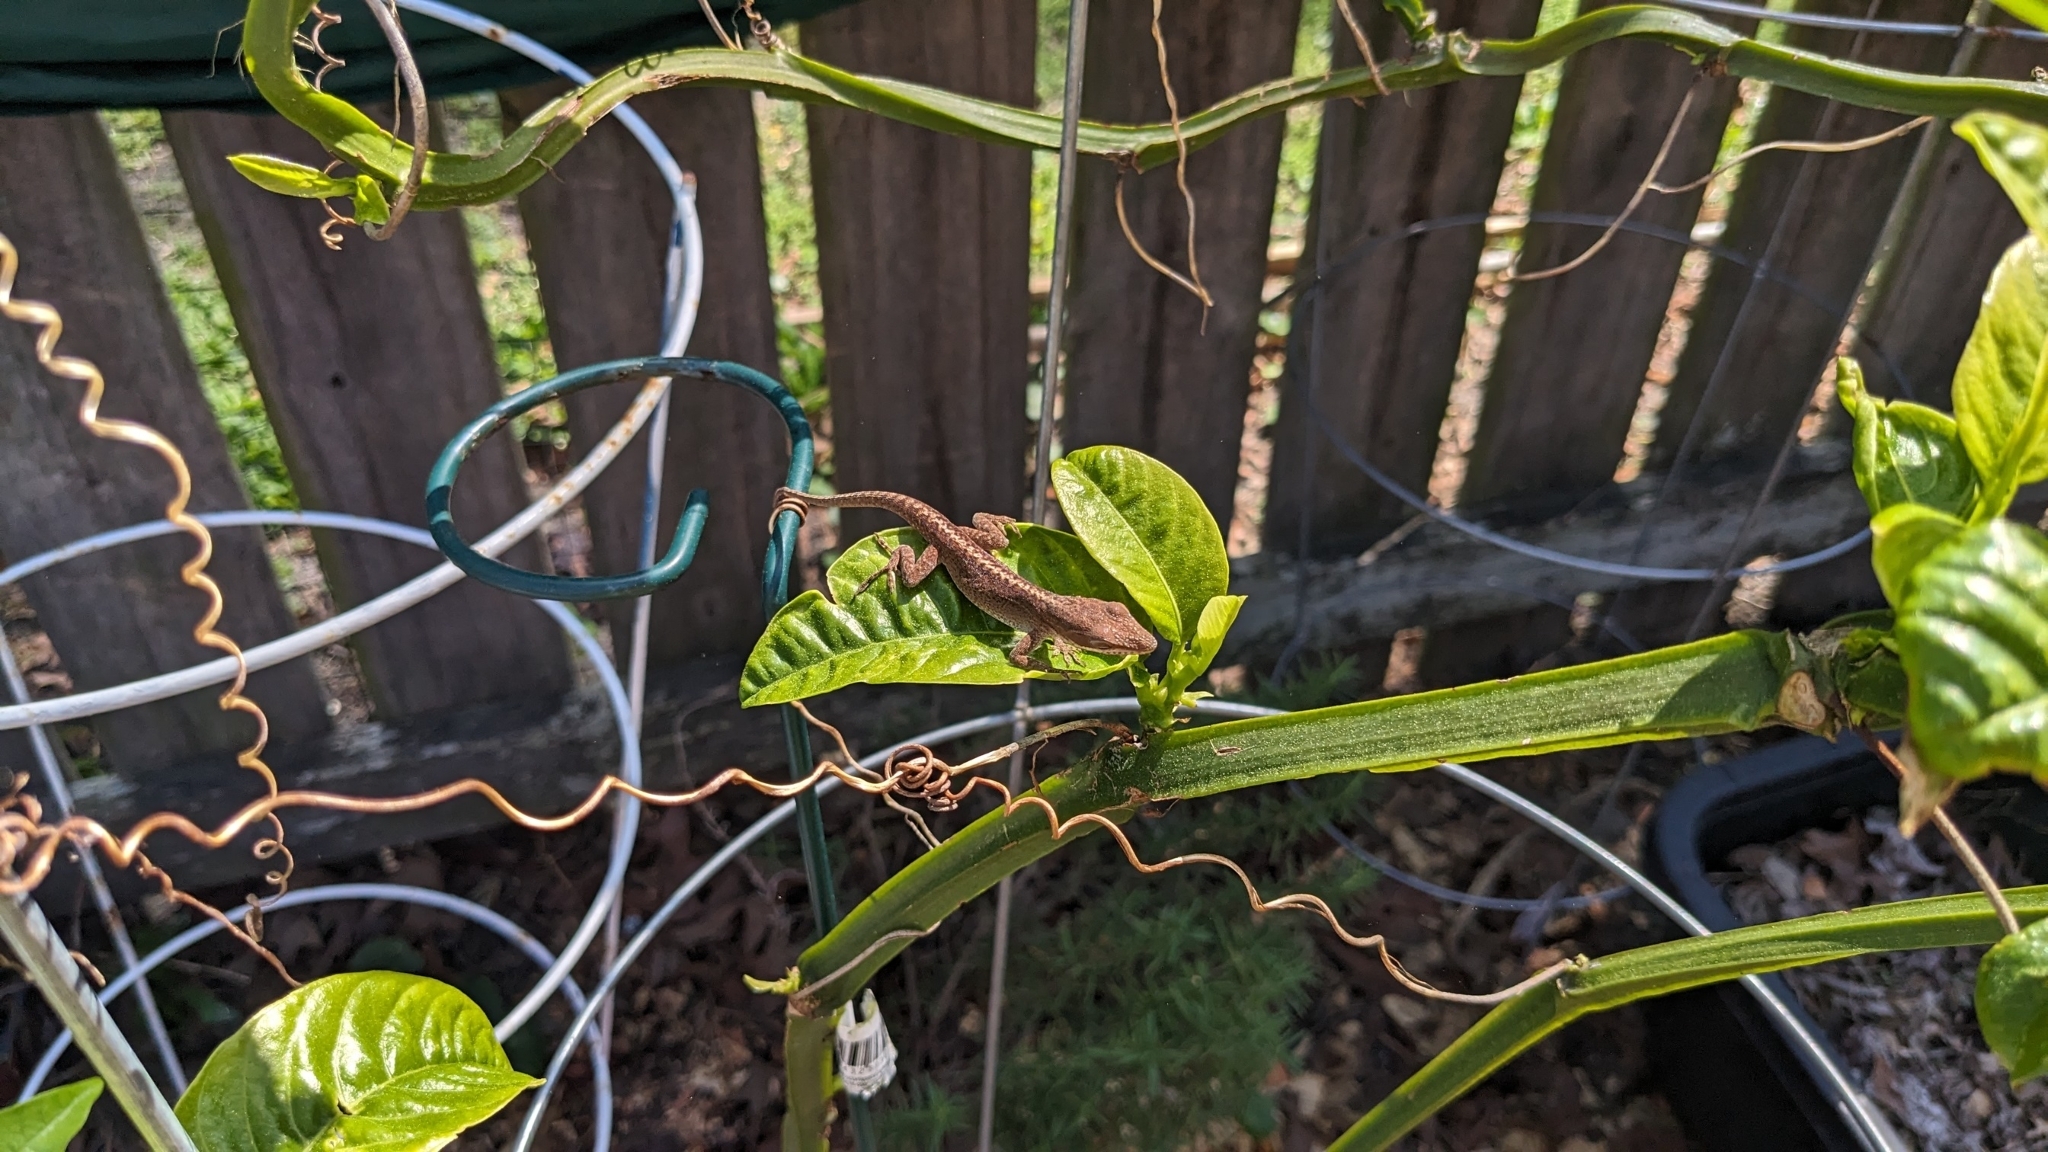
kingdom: Animalia
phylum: Chordata
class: Squamata
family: Dactyloidae
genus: Anolis
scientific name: Anolis carolinensis
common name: Green anole
